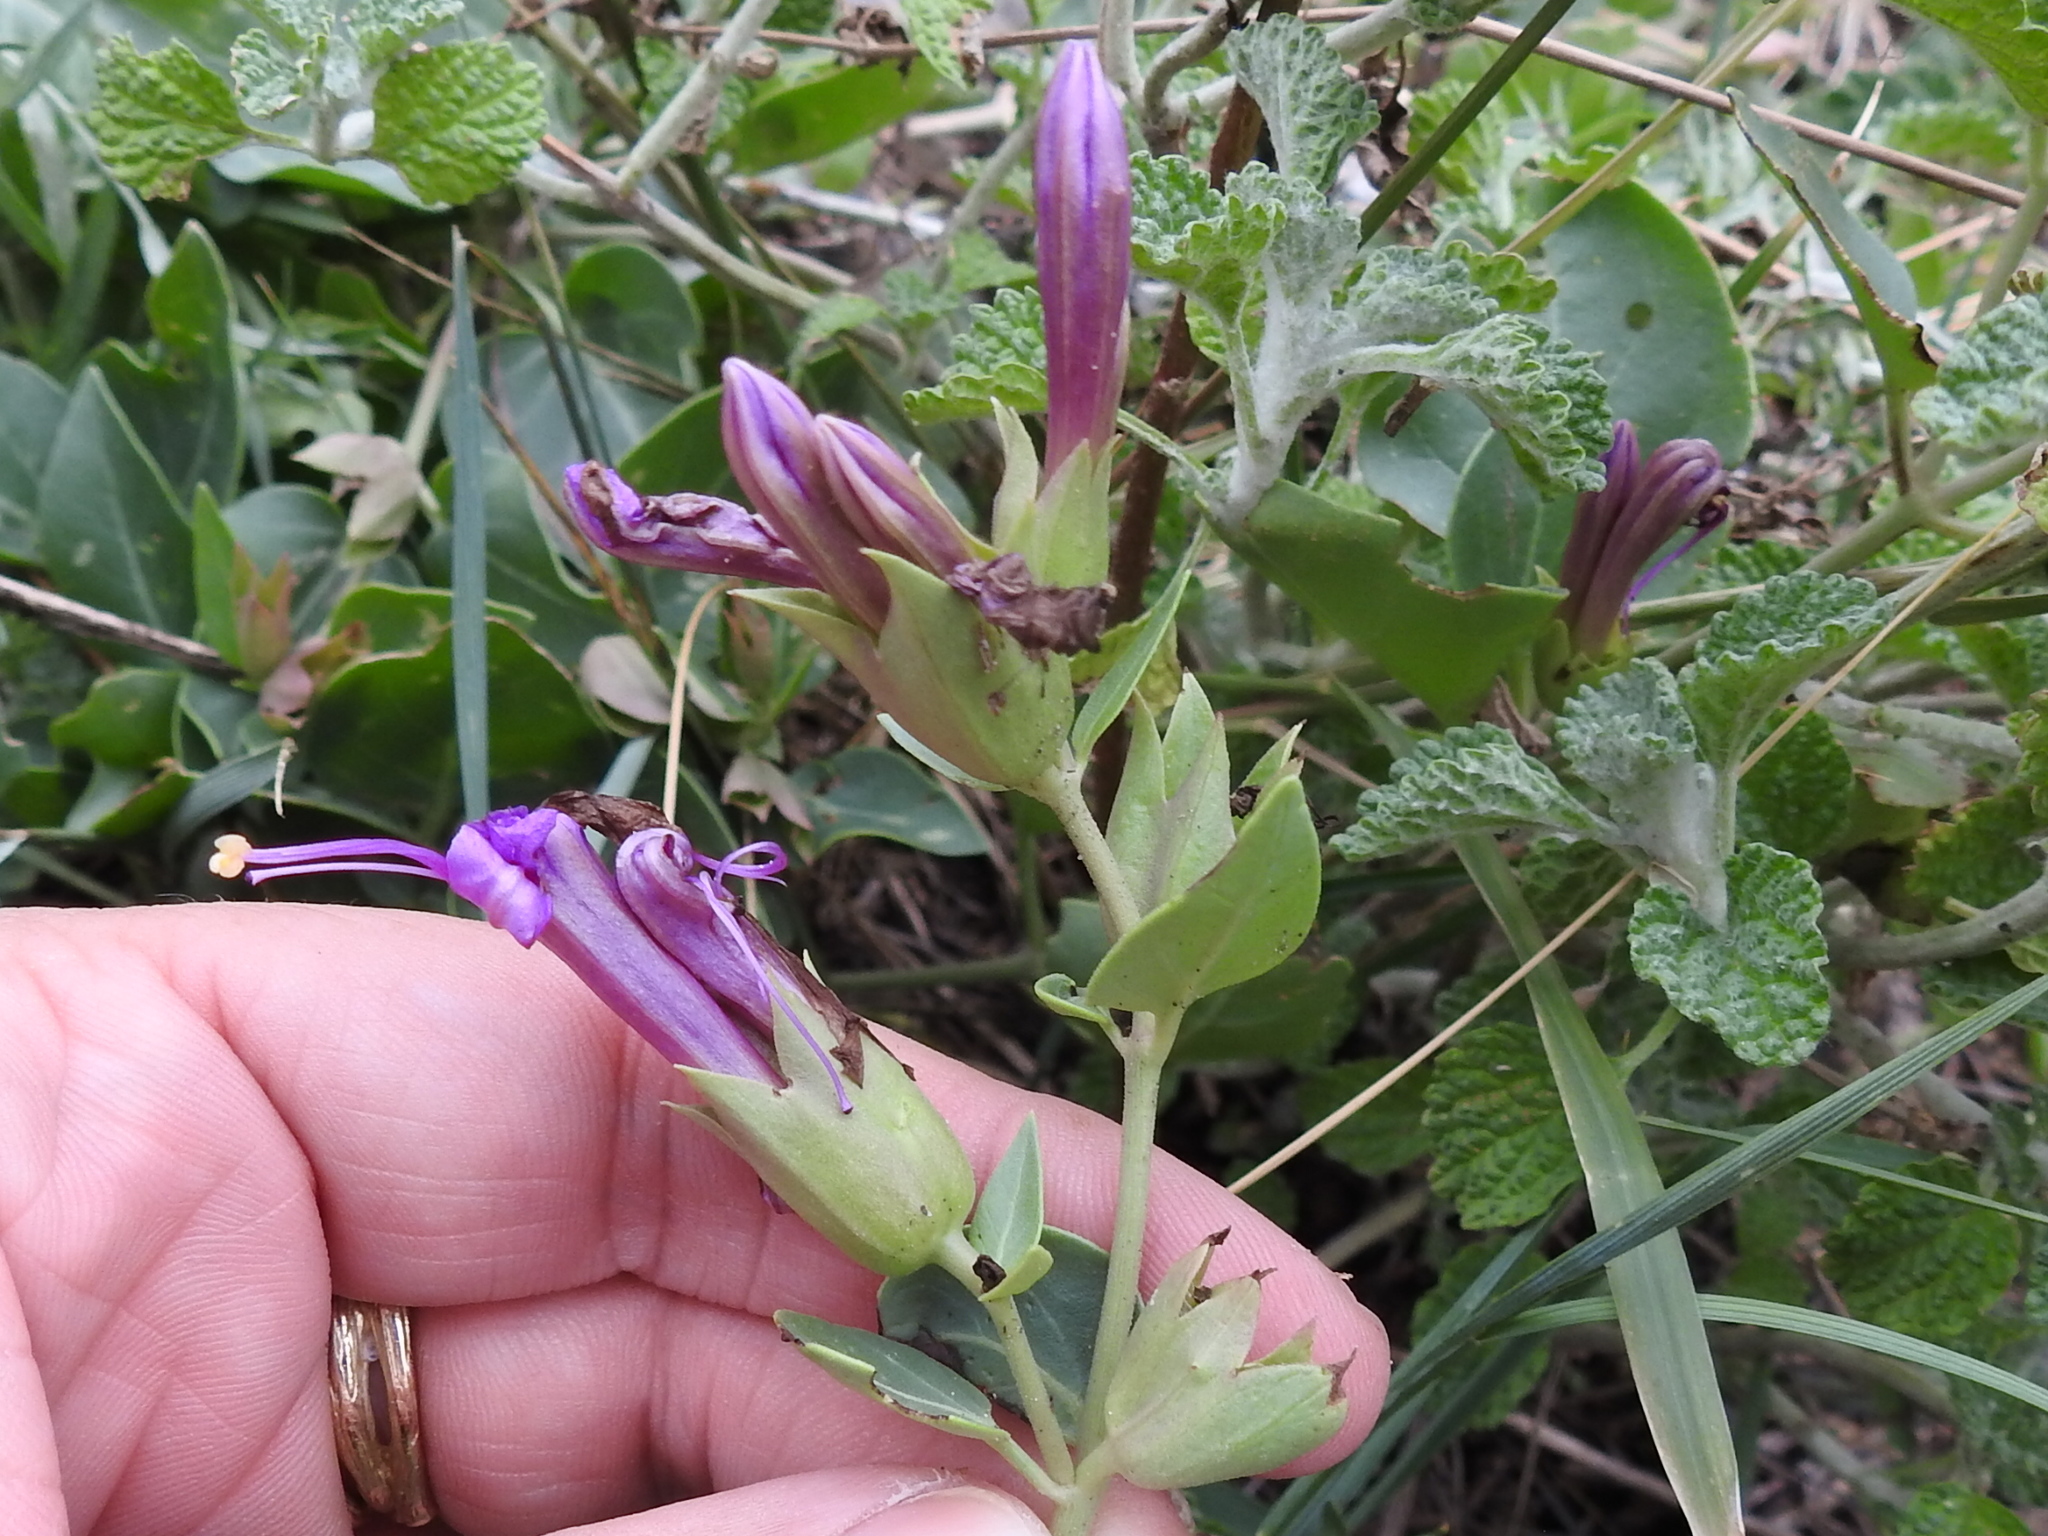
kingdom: Plantae
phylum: Tracheophyta
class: Magnoliopsida
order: Caryophyllales
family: Nyctaginaceae
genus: Mirabilis
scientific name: Mirabilis multiflora
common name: Froebel's four-o'clock
